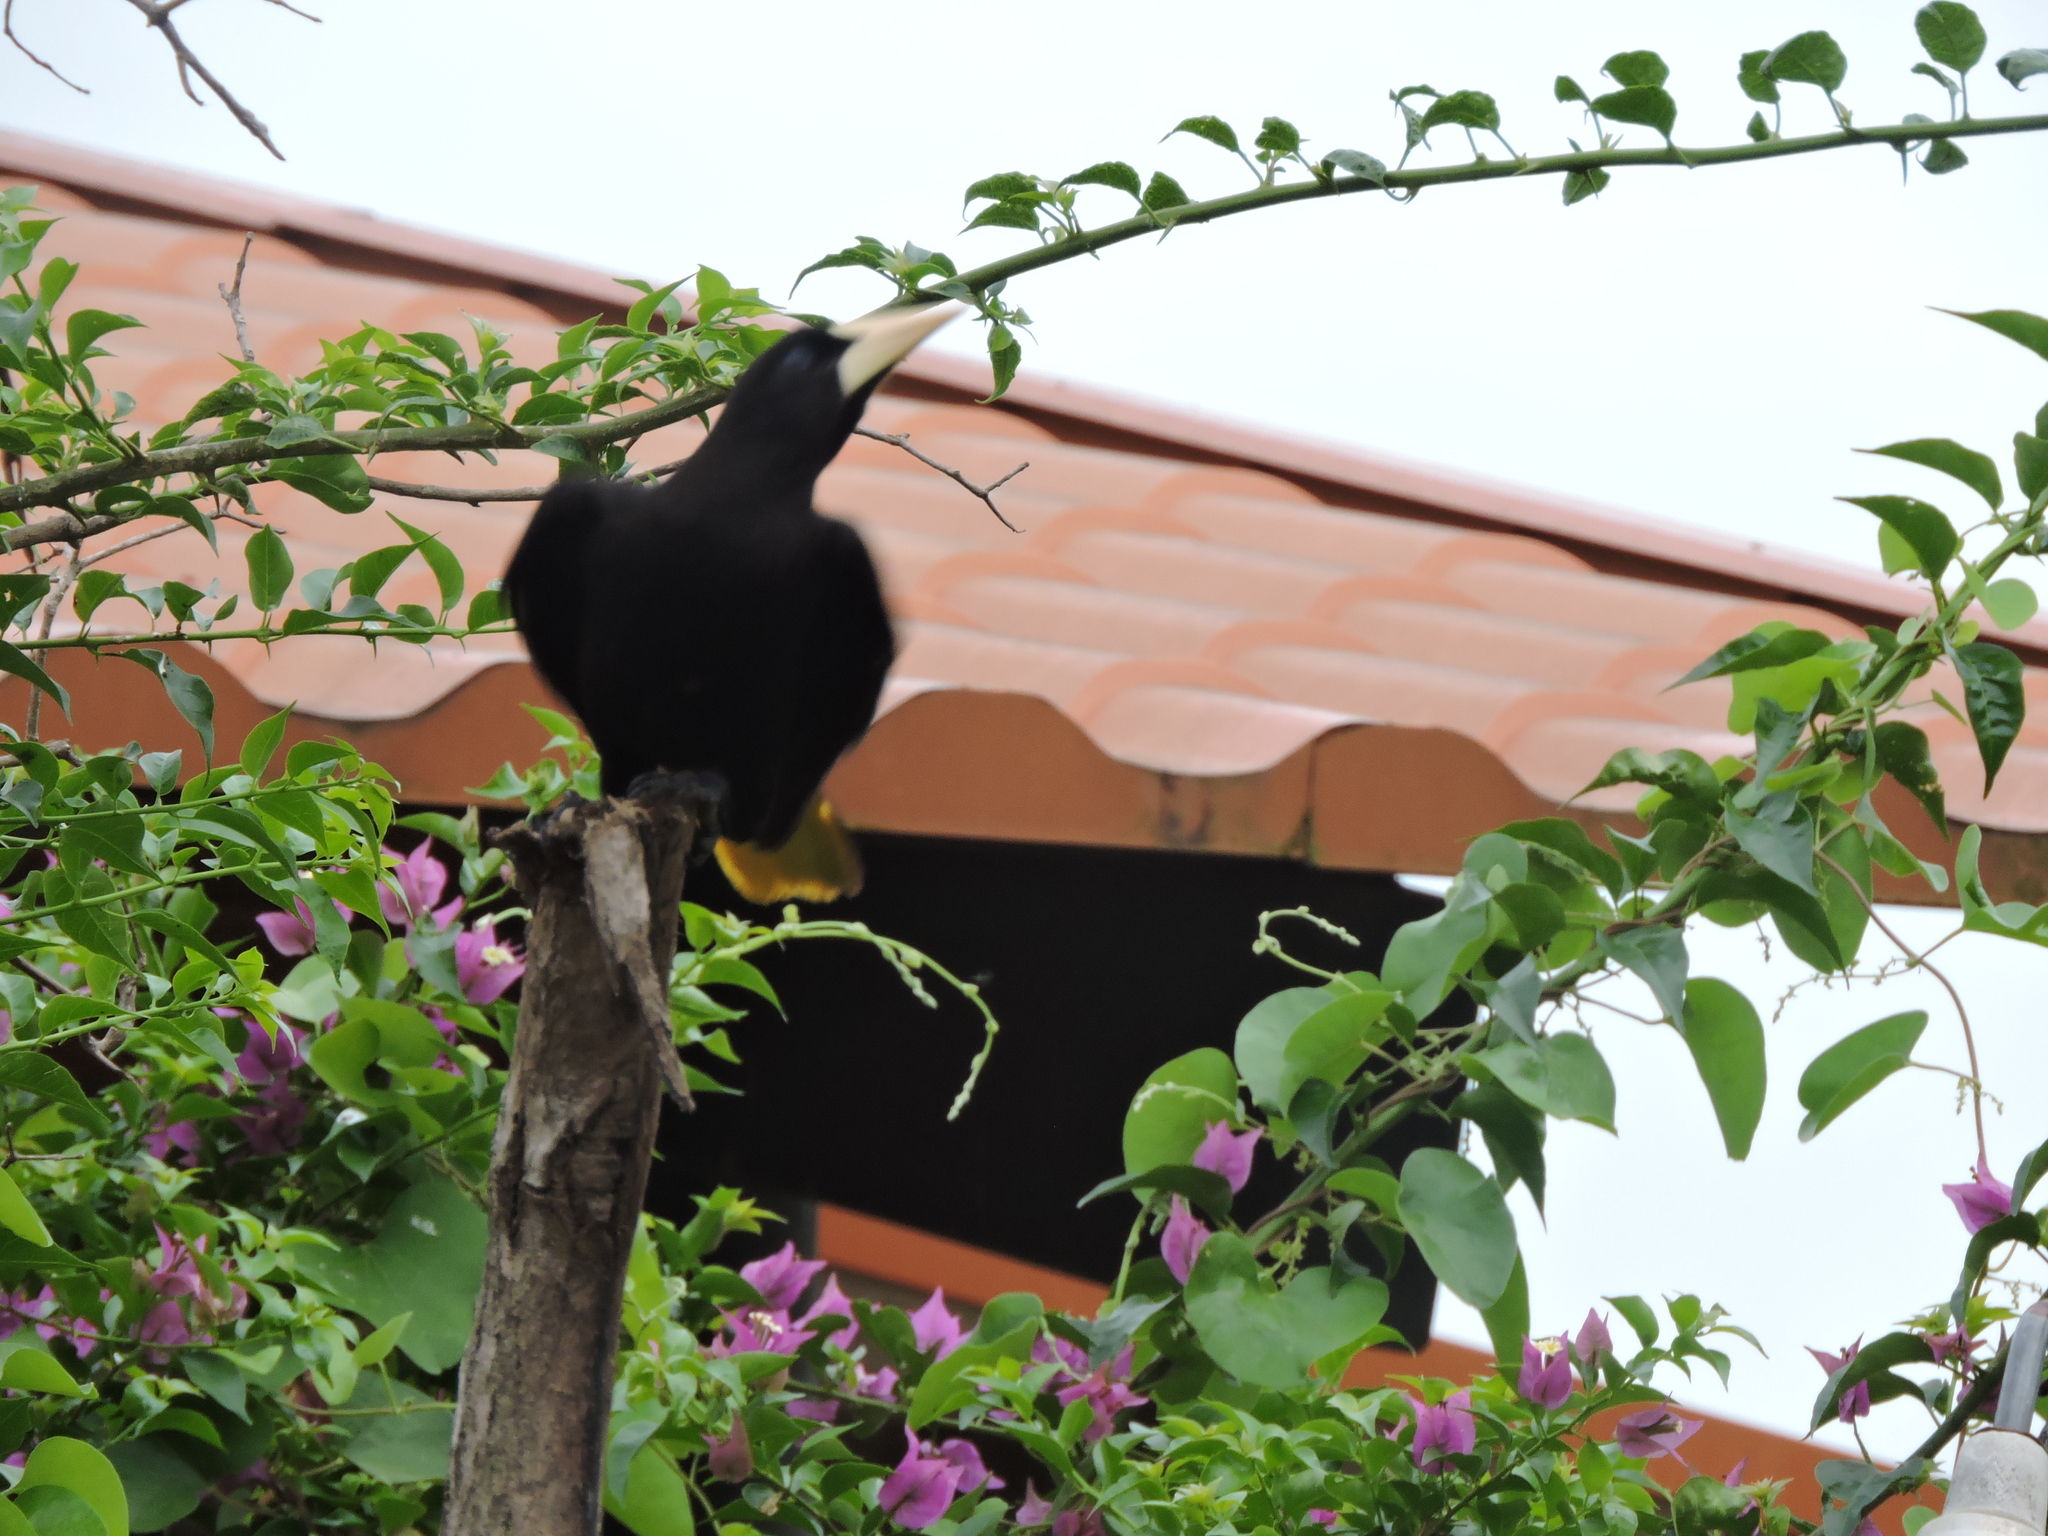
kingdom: Animalia
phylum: Chordata
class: Aves
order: Passeriformes
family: Icteridae
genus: Psarocolius
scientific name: Psarocolius decumanus
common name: Crested oropendola
